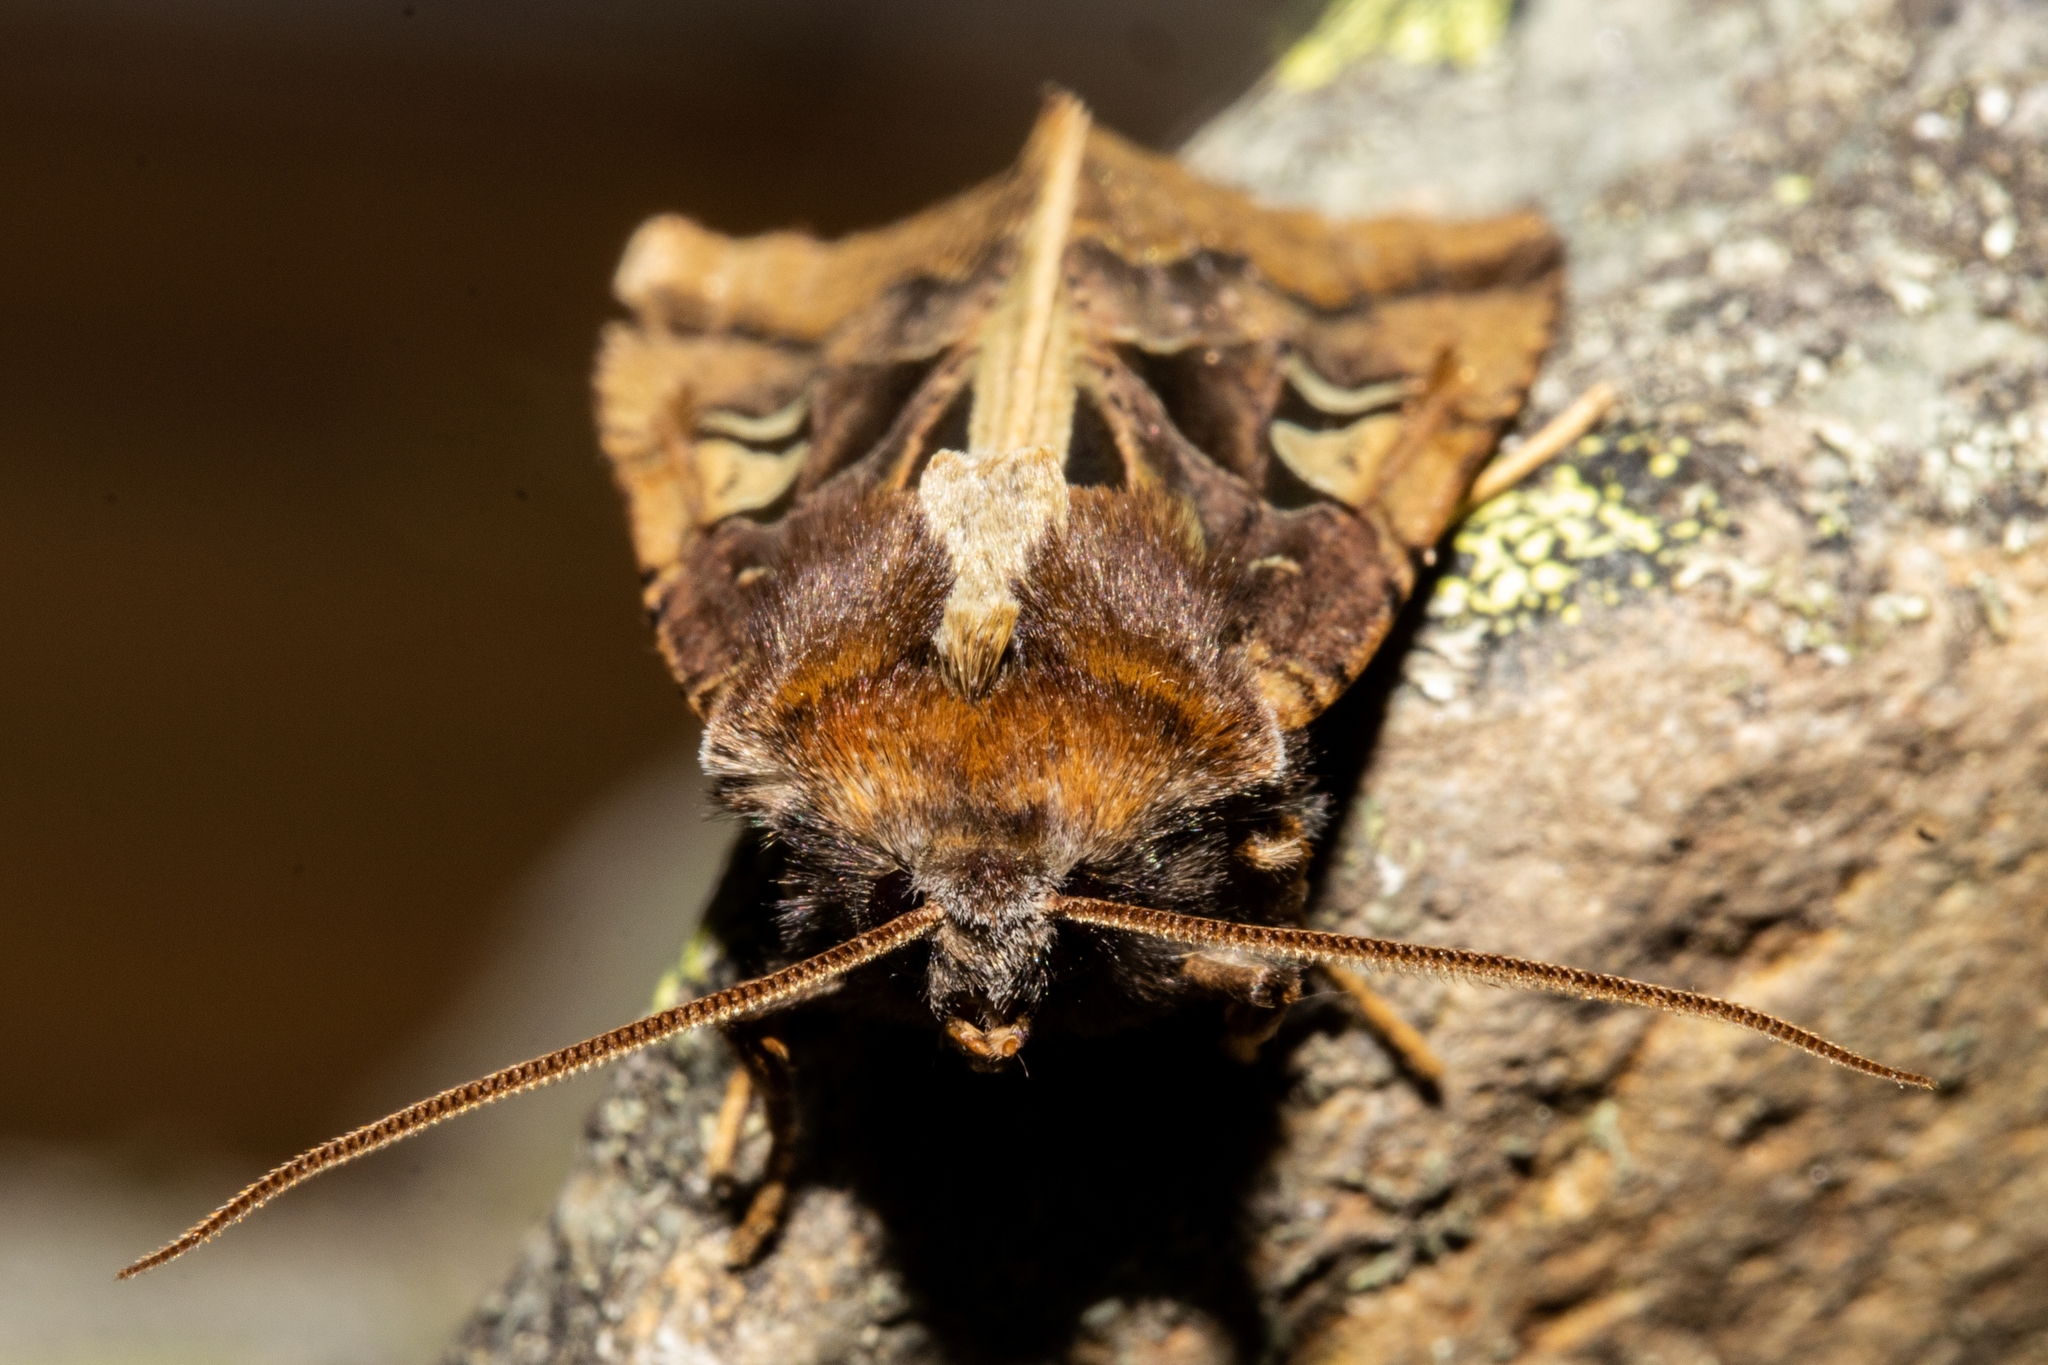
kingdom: Animalia
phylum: Arthropoda
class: Insecta
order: Lepidoptera
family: Noctuidae
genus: Meterana
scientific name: Meterana grandiosa
